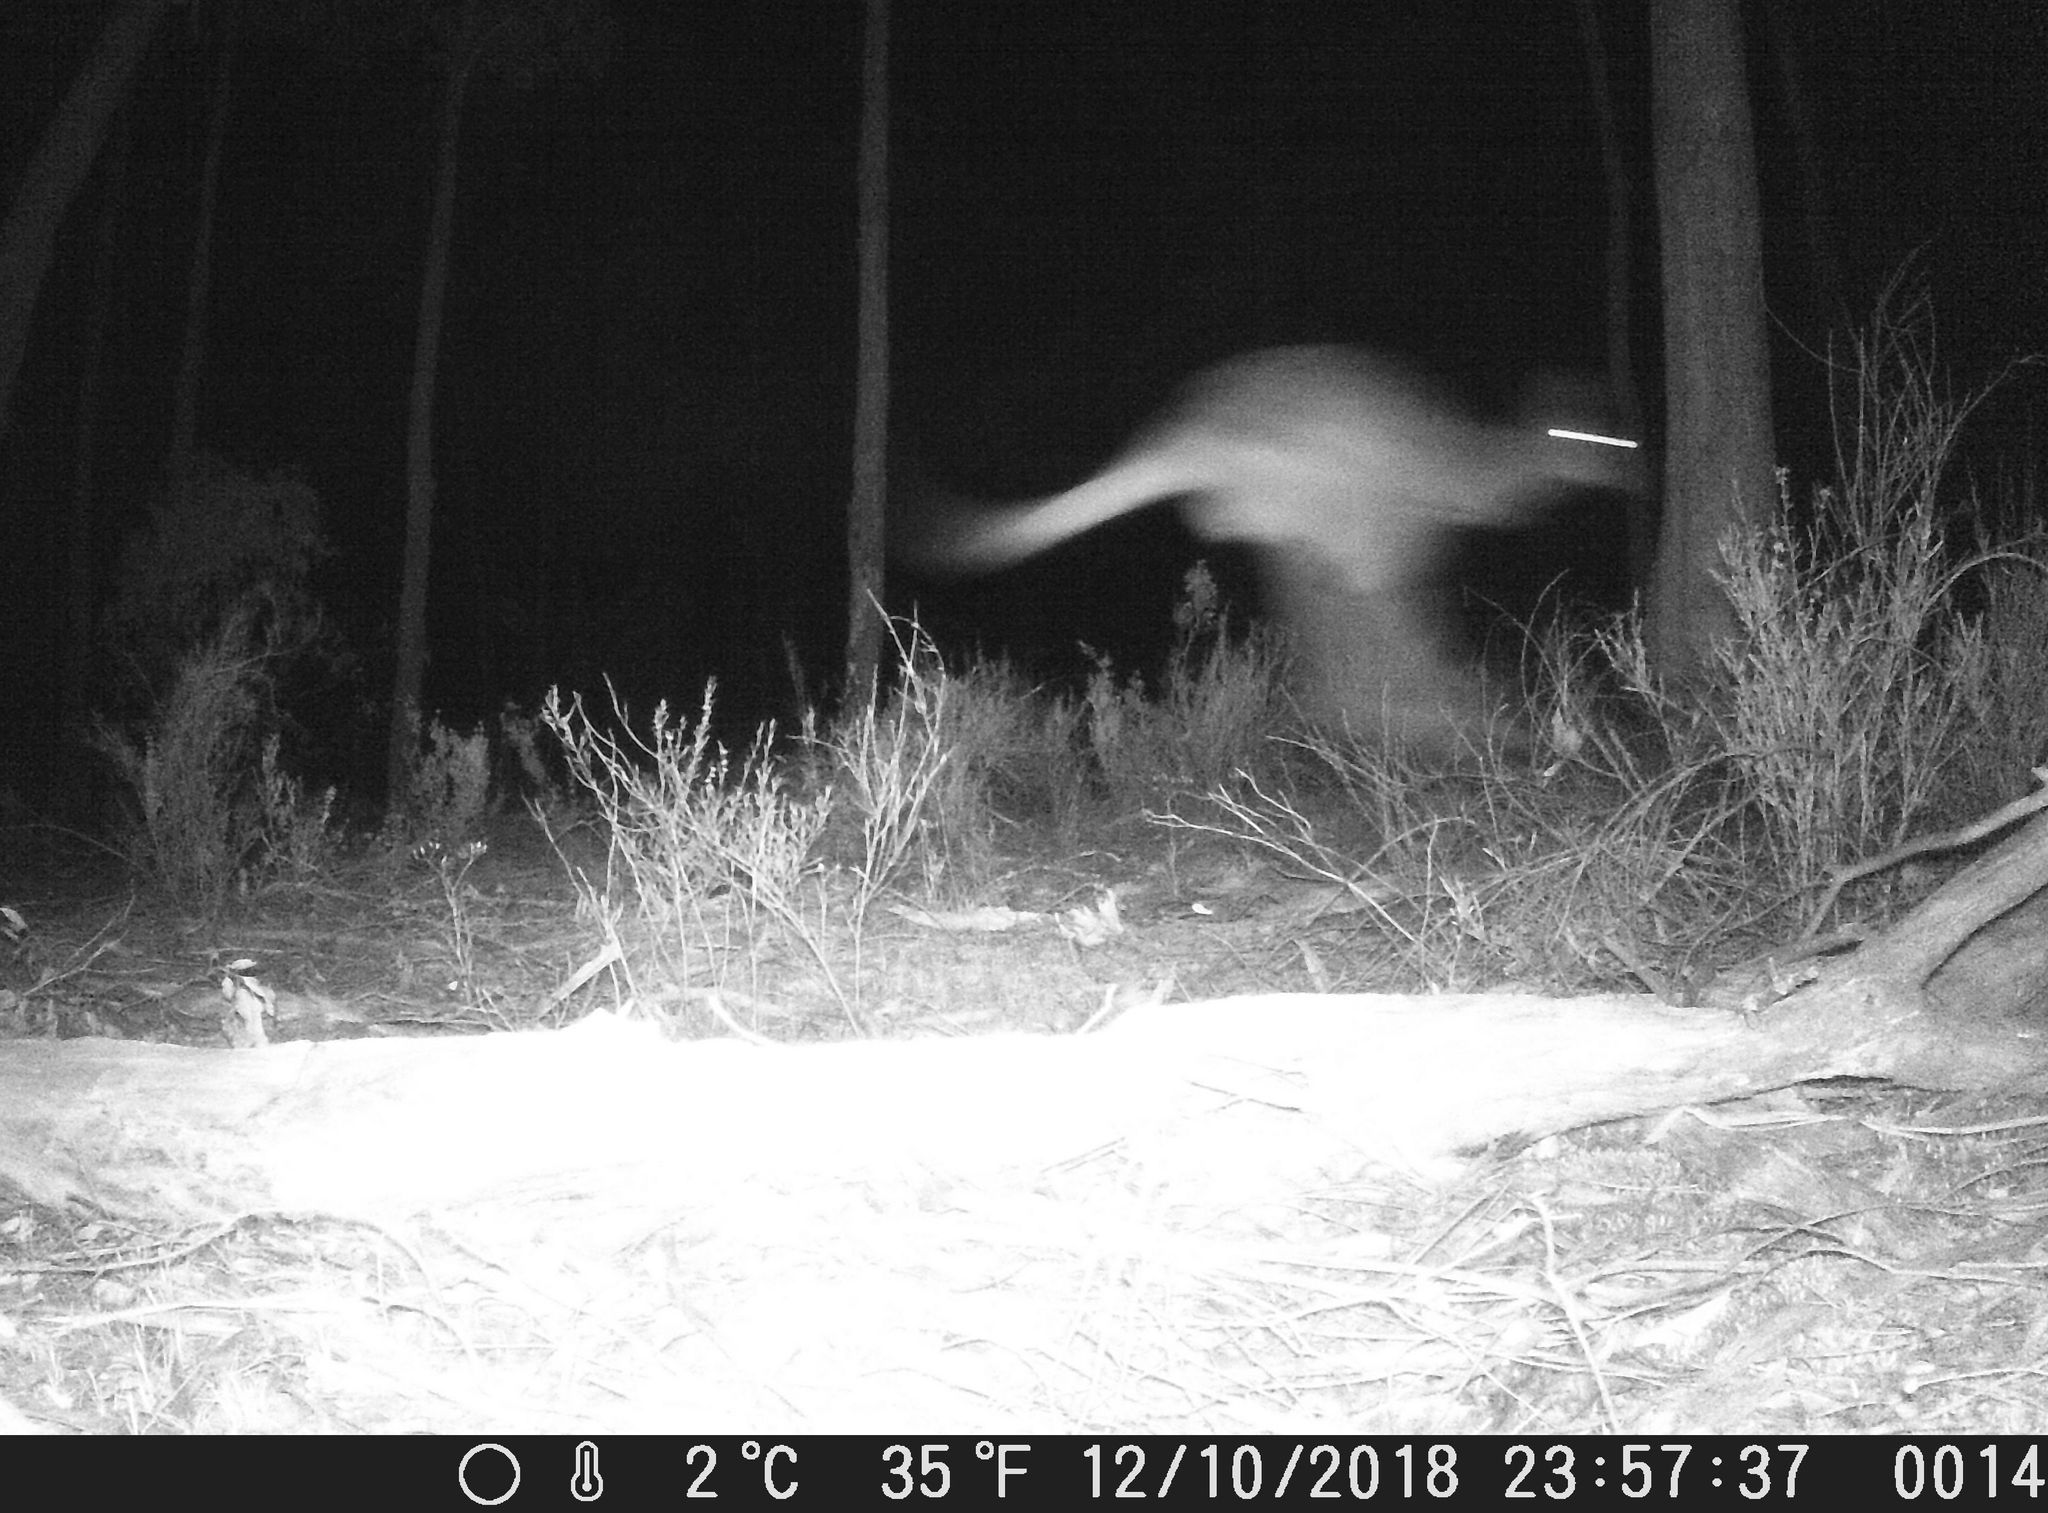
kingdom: Animalia
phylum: Chordata
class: Mammalia
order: Diprotodontia
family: Macropodidae
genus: Wallabia
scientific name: Wallabia bicolor
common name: Swamp wallaby
